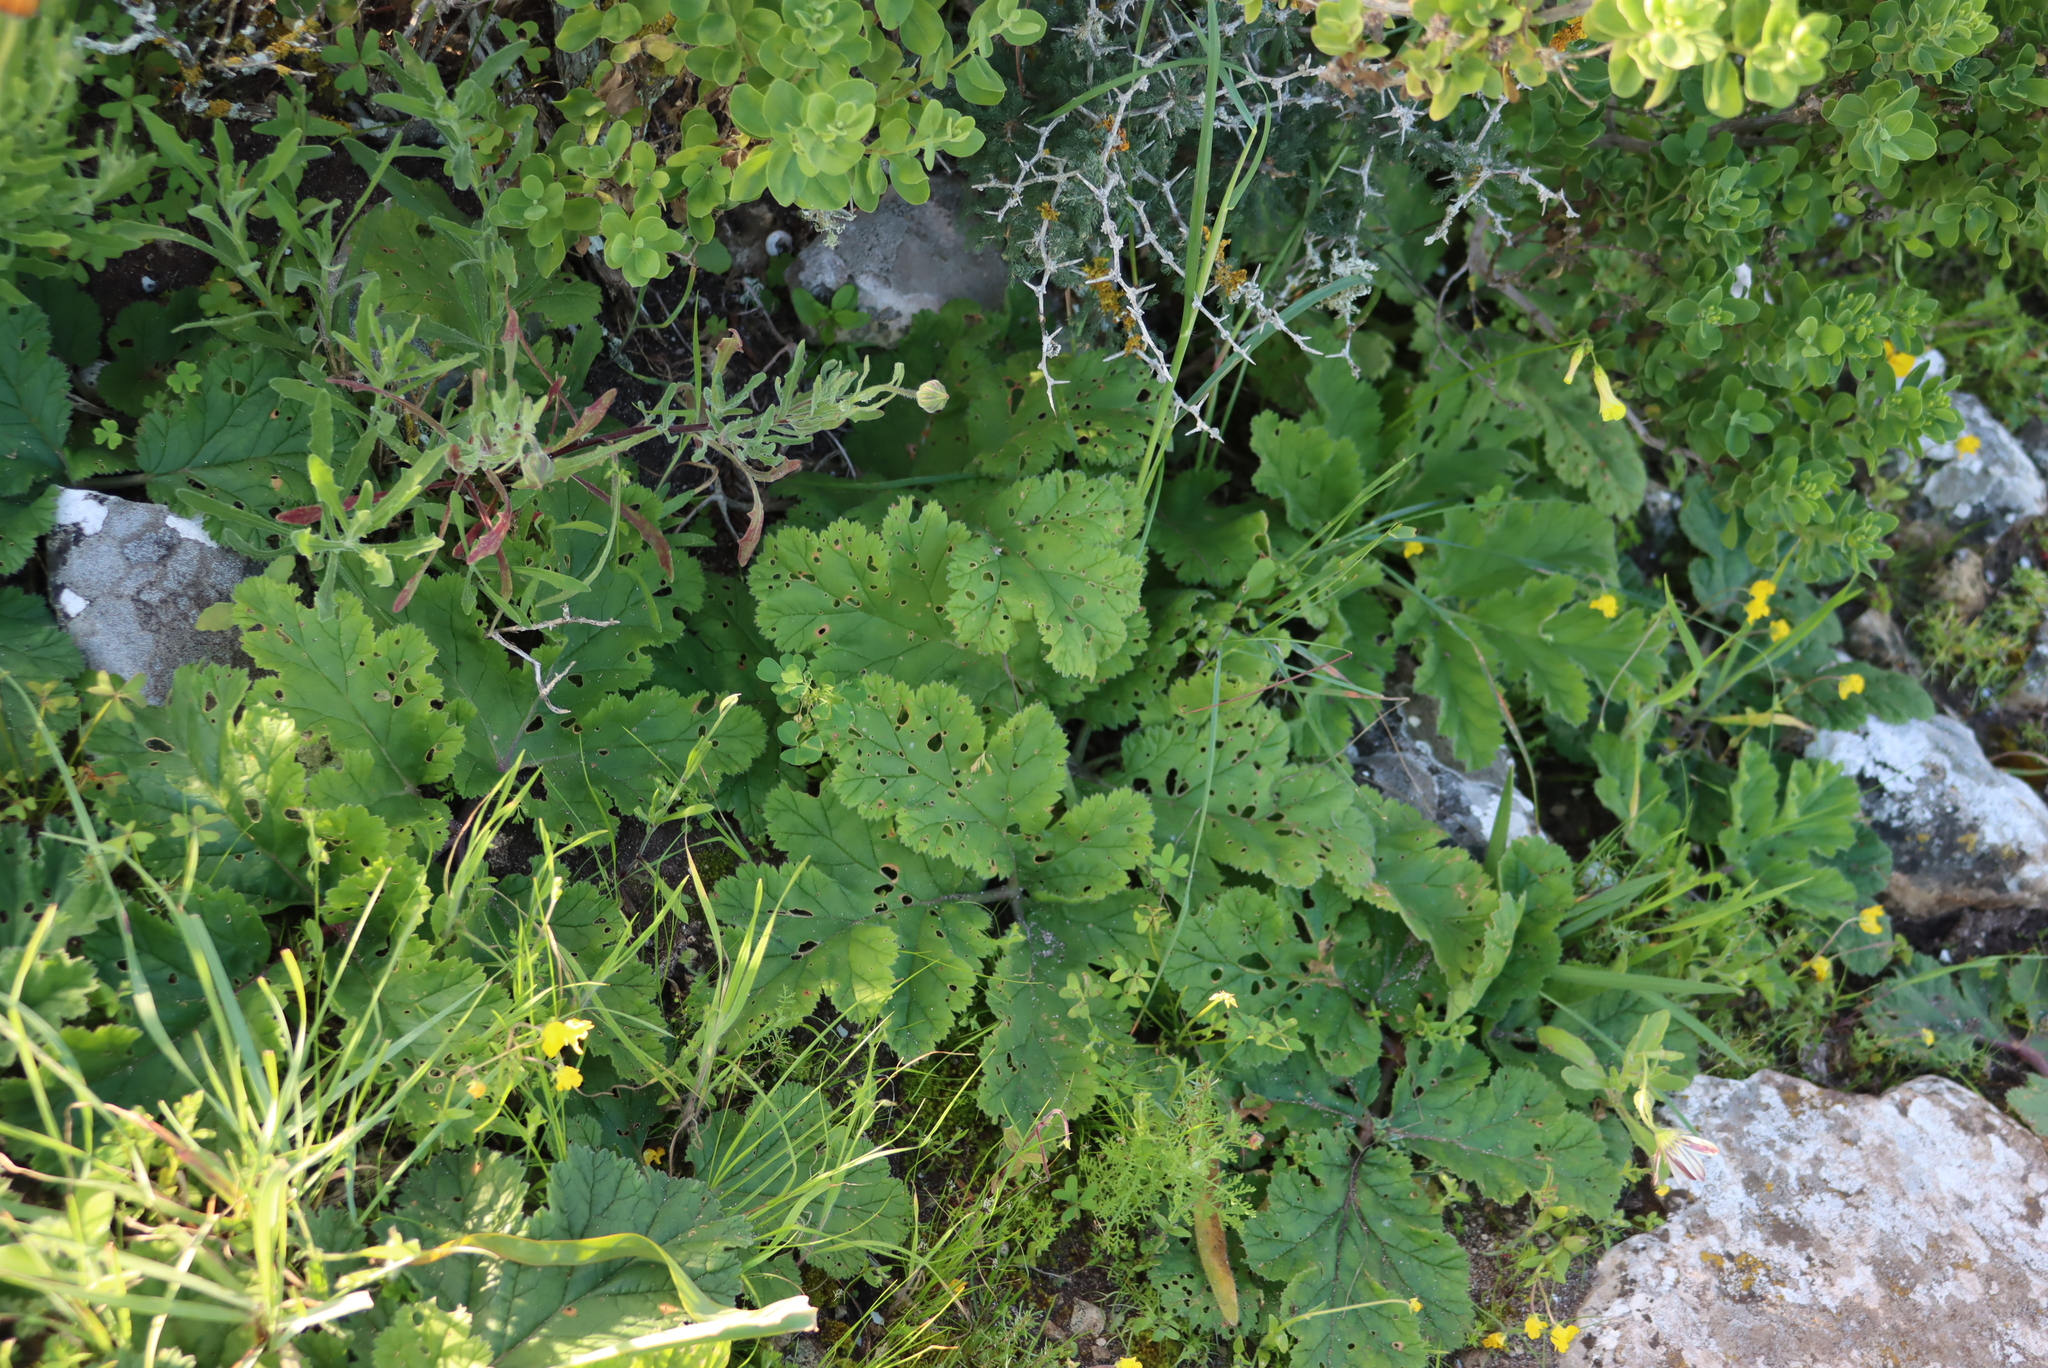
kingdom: Plantae
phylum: Tracheophyta
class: Magnoliopsida
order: Geraniales
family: Geraniaceae
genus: Pelargonium
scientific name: Pelargonium lobatum
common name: Vine-leaf pelargonium
